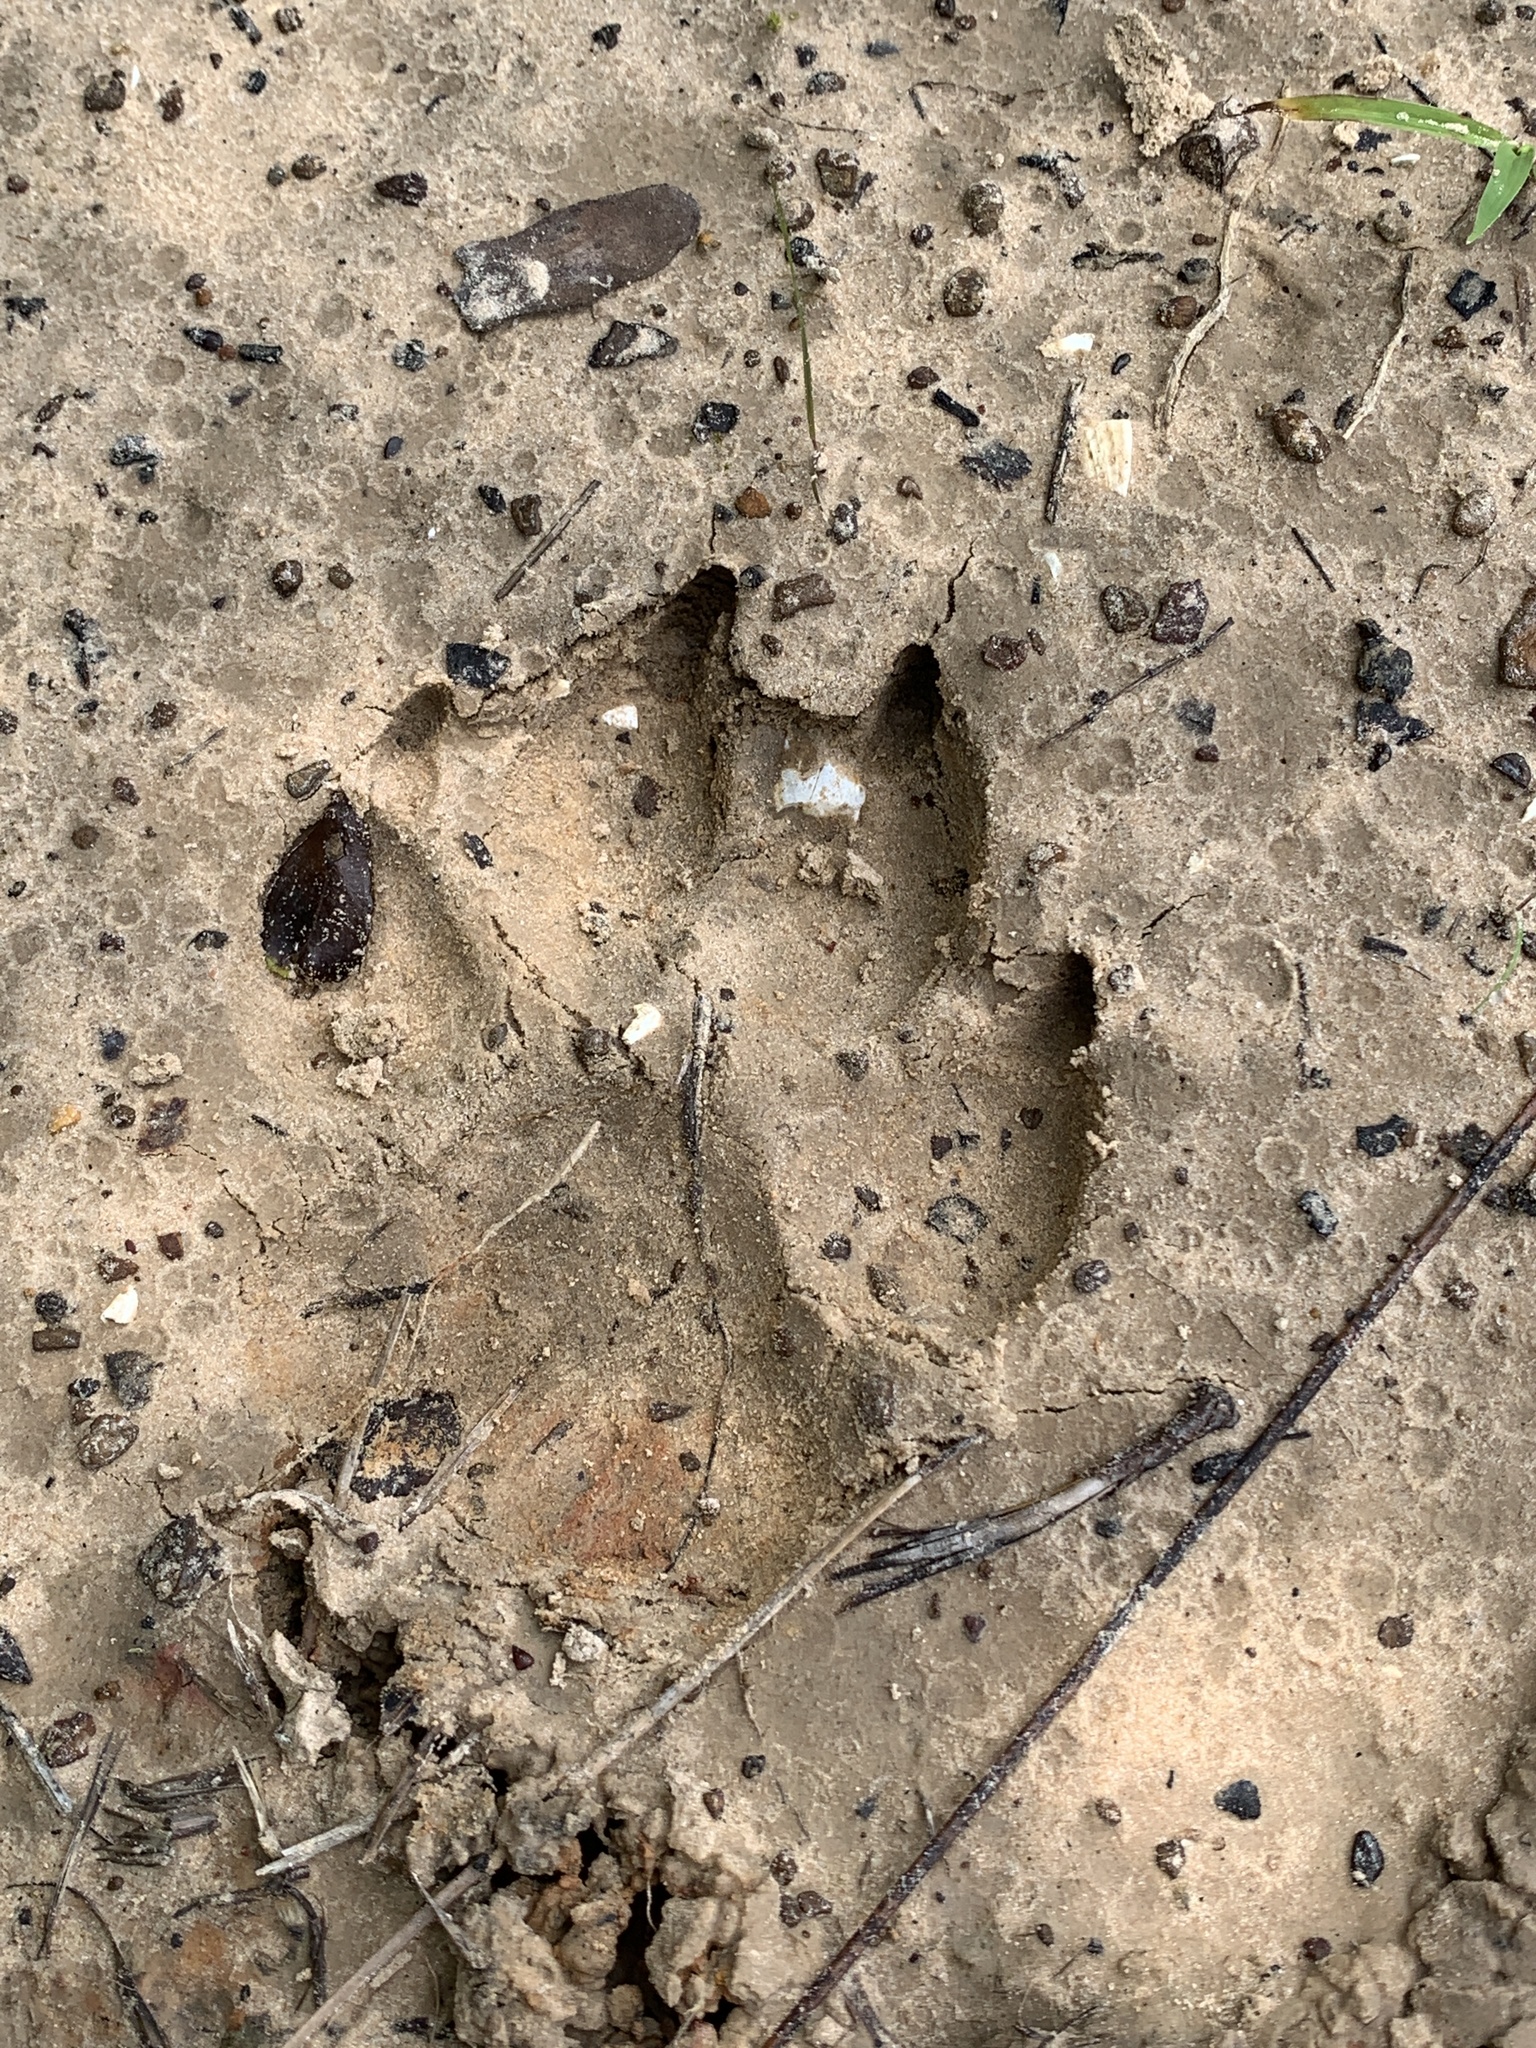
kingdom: Animalia
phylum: Chordata
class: Mammalia
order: Carnivora
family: Canidae
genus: Canis
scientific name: Canis lupus
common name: Gray wolf
